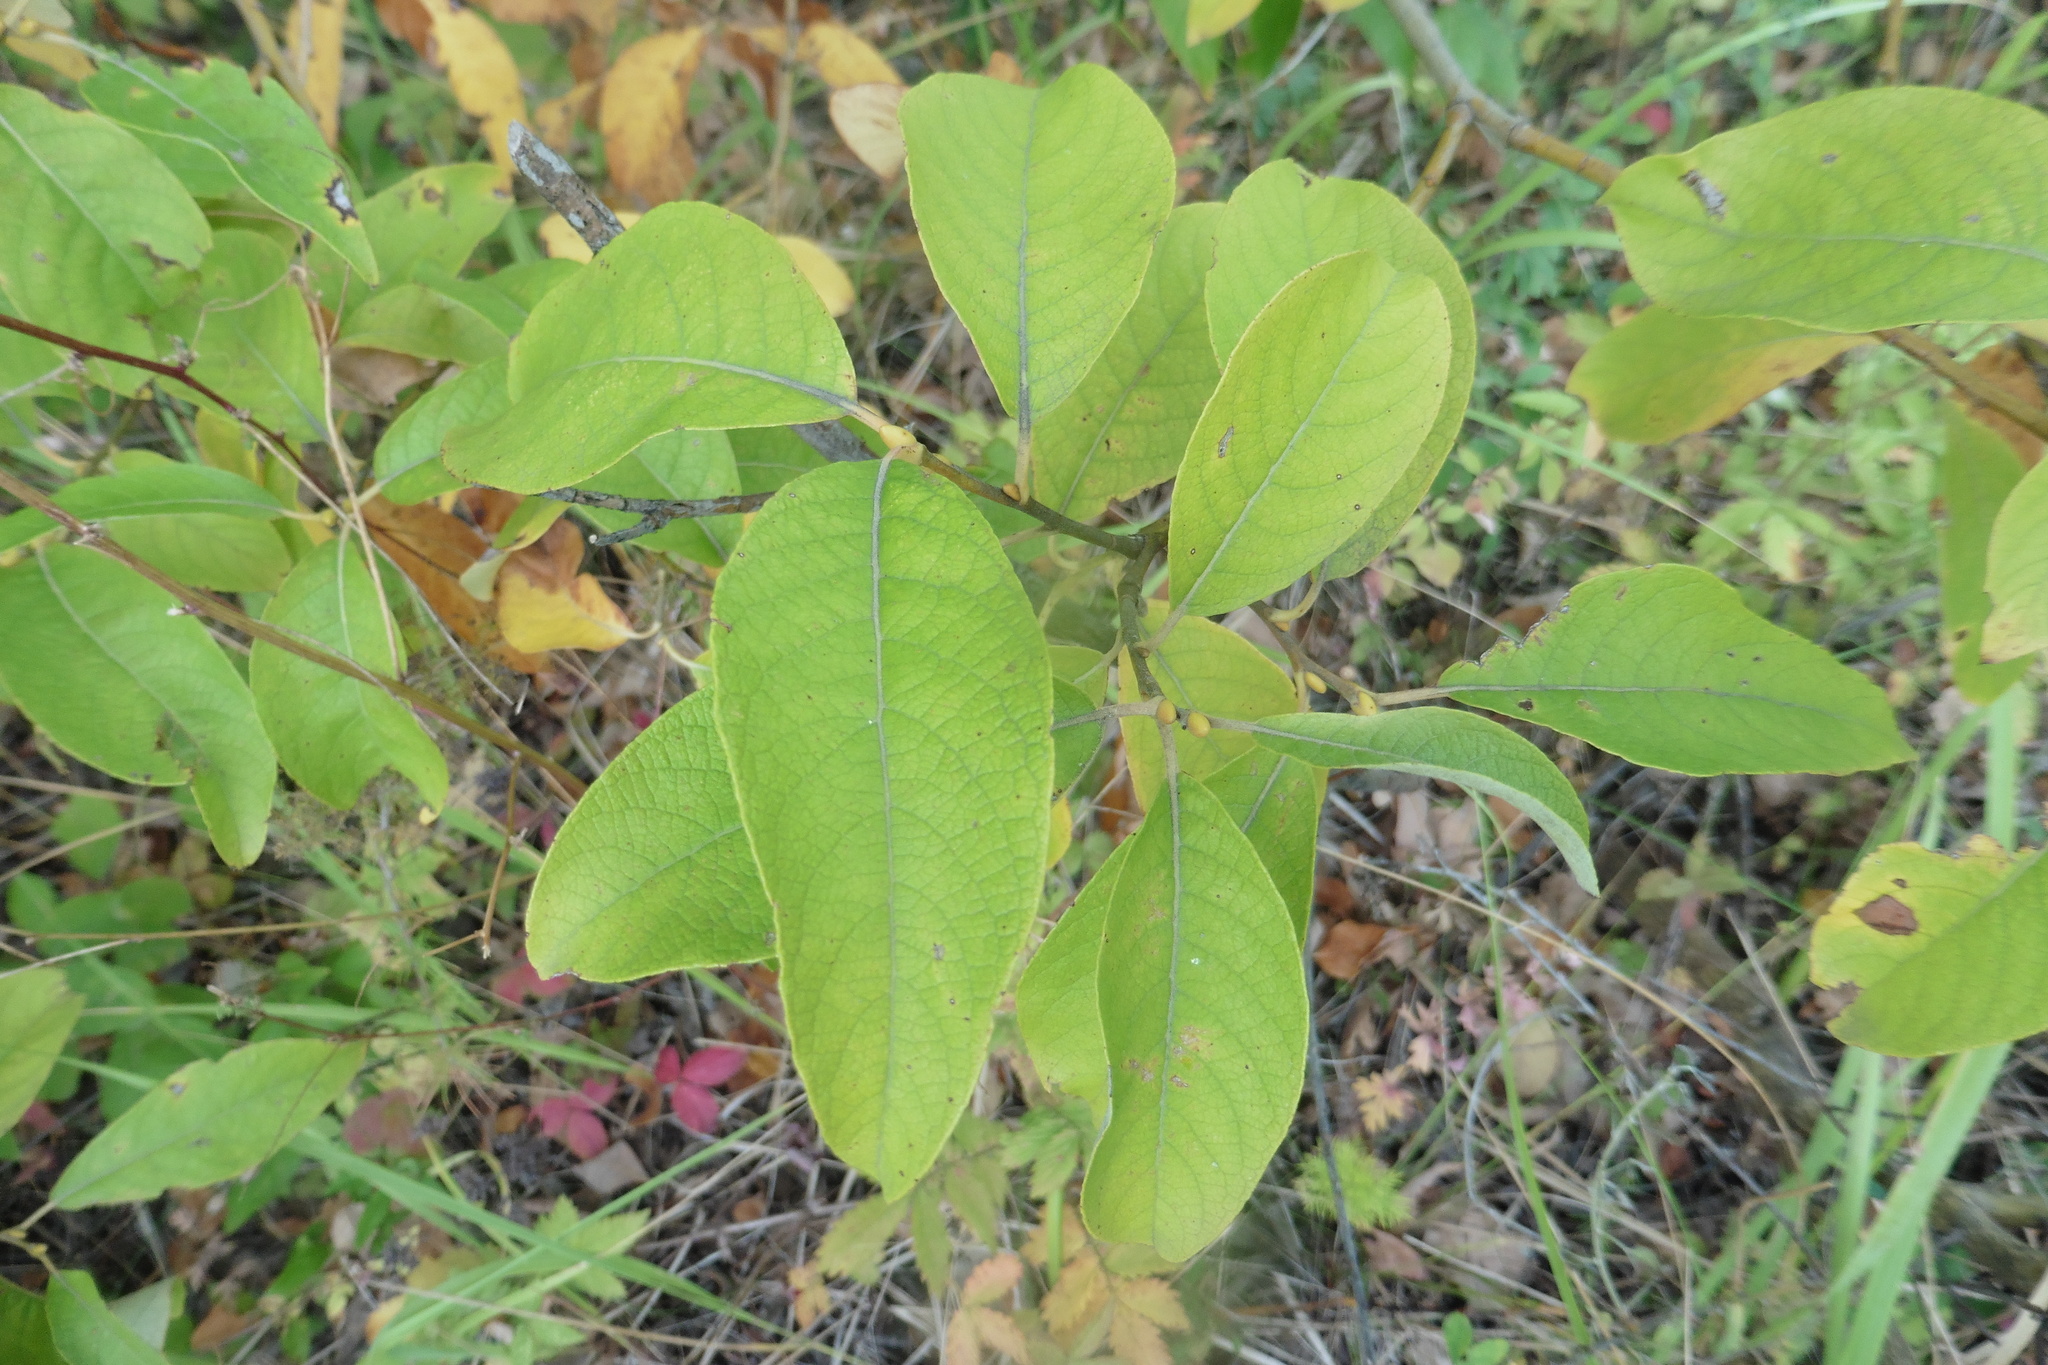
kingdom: Plantae
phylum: Tracheophyta
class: Magnoliopsida
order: Malpighiales
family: Salicaceae
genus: Salix
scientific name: Salix caprea
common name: Goat willow
